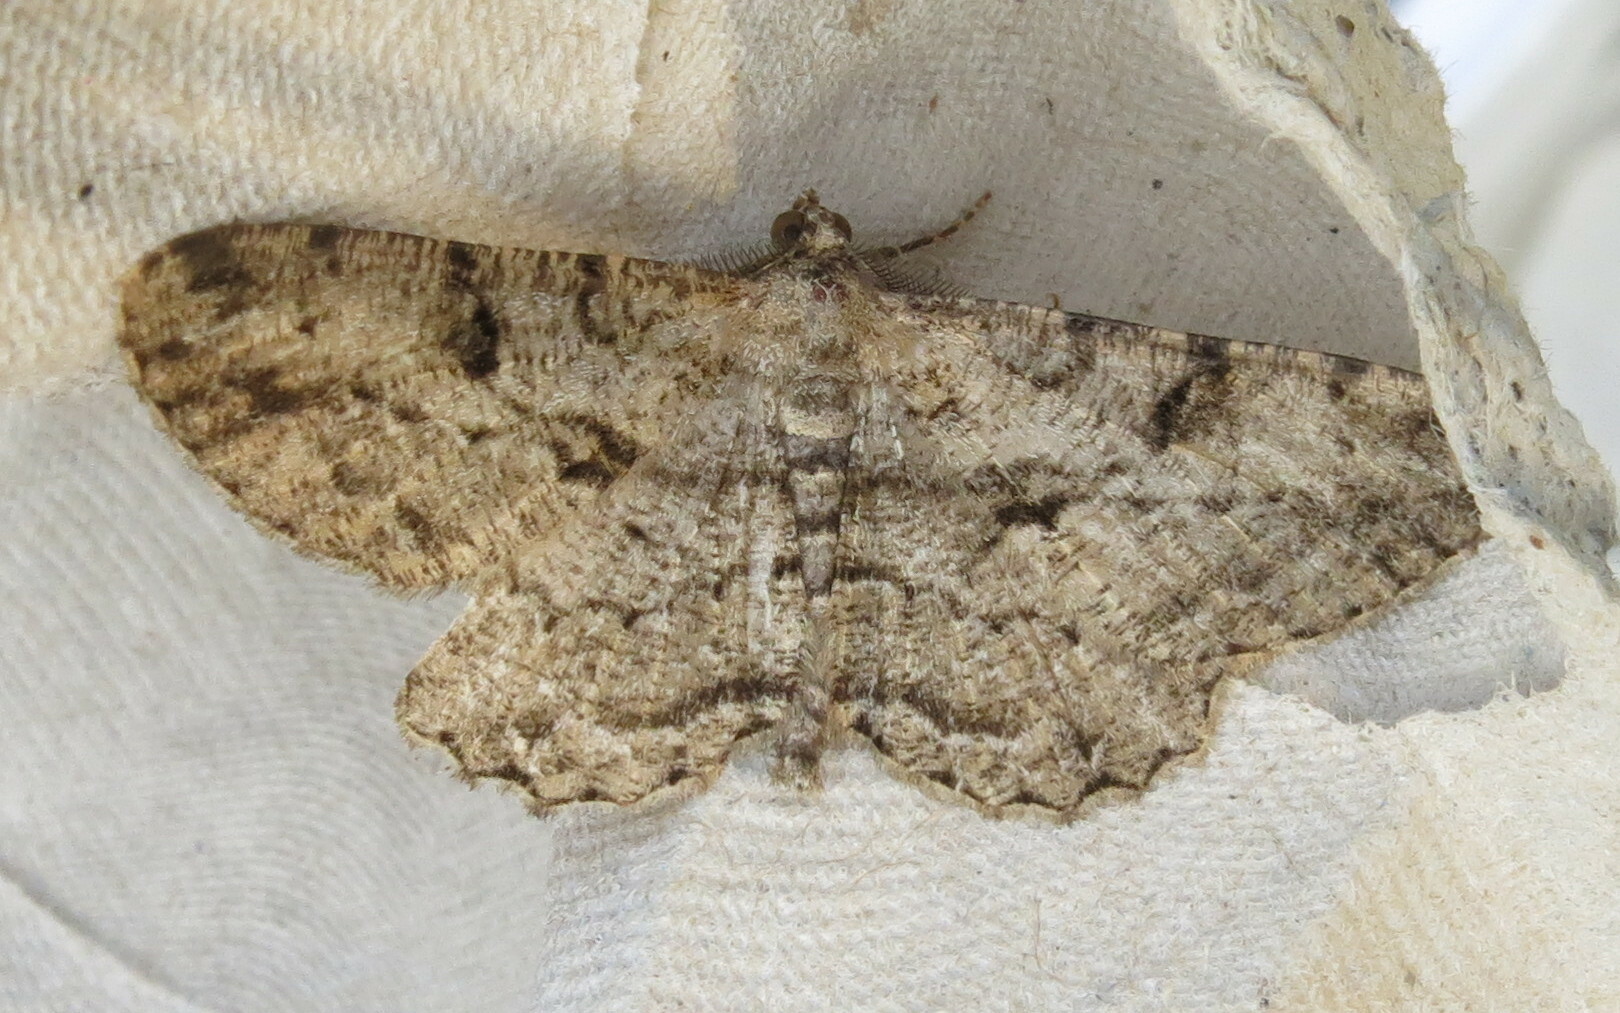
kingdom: Animalia
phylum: Arthropoda
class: Insecta
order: Lepidoptera
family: Geometridae
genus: Peribatodes
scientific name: Peribatodes rhomboidaria
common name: Willow beauty
